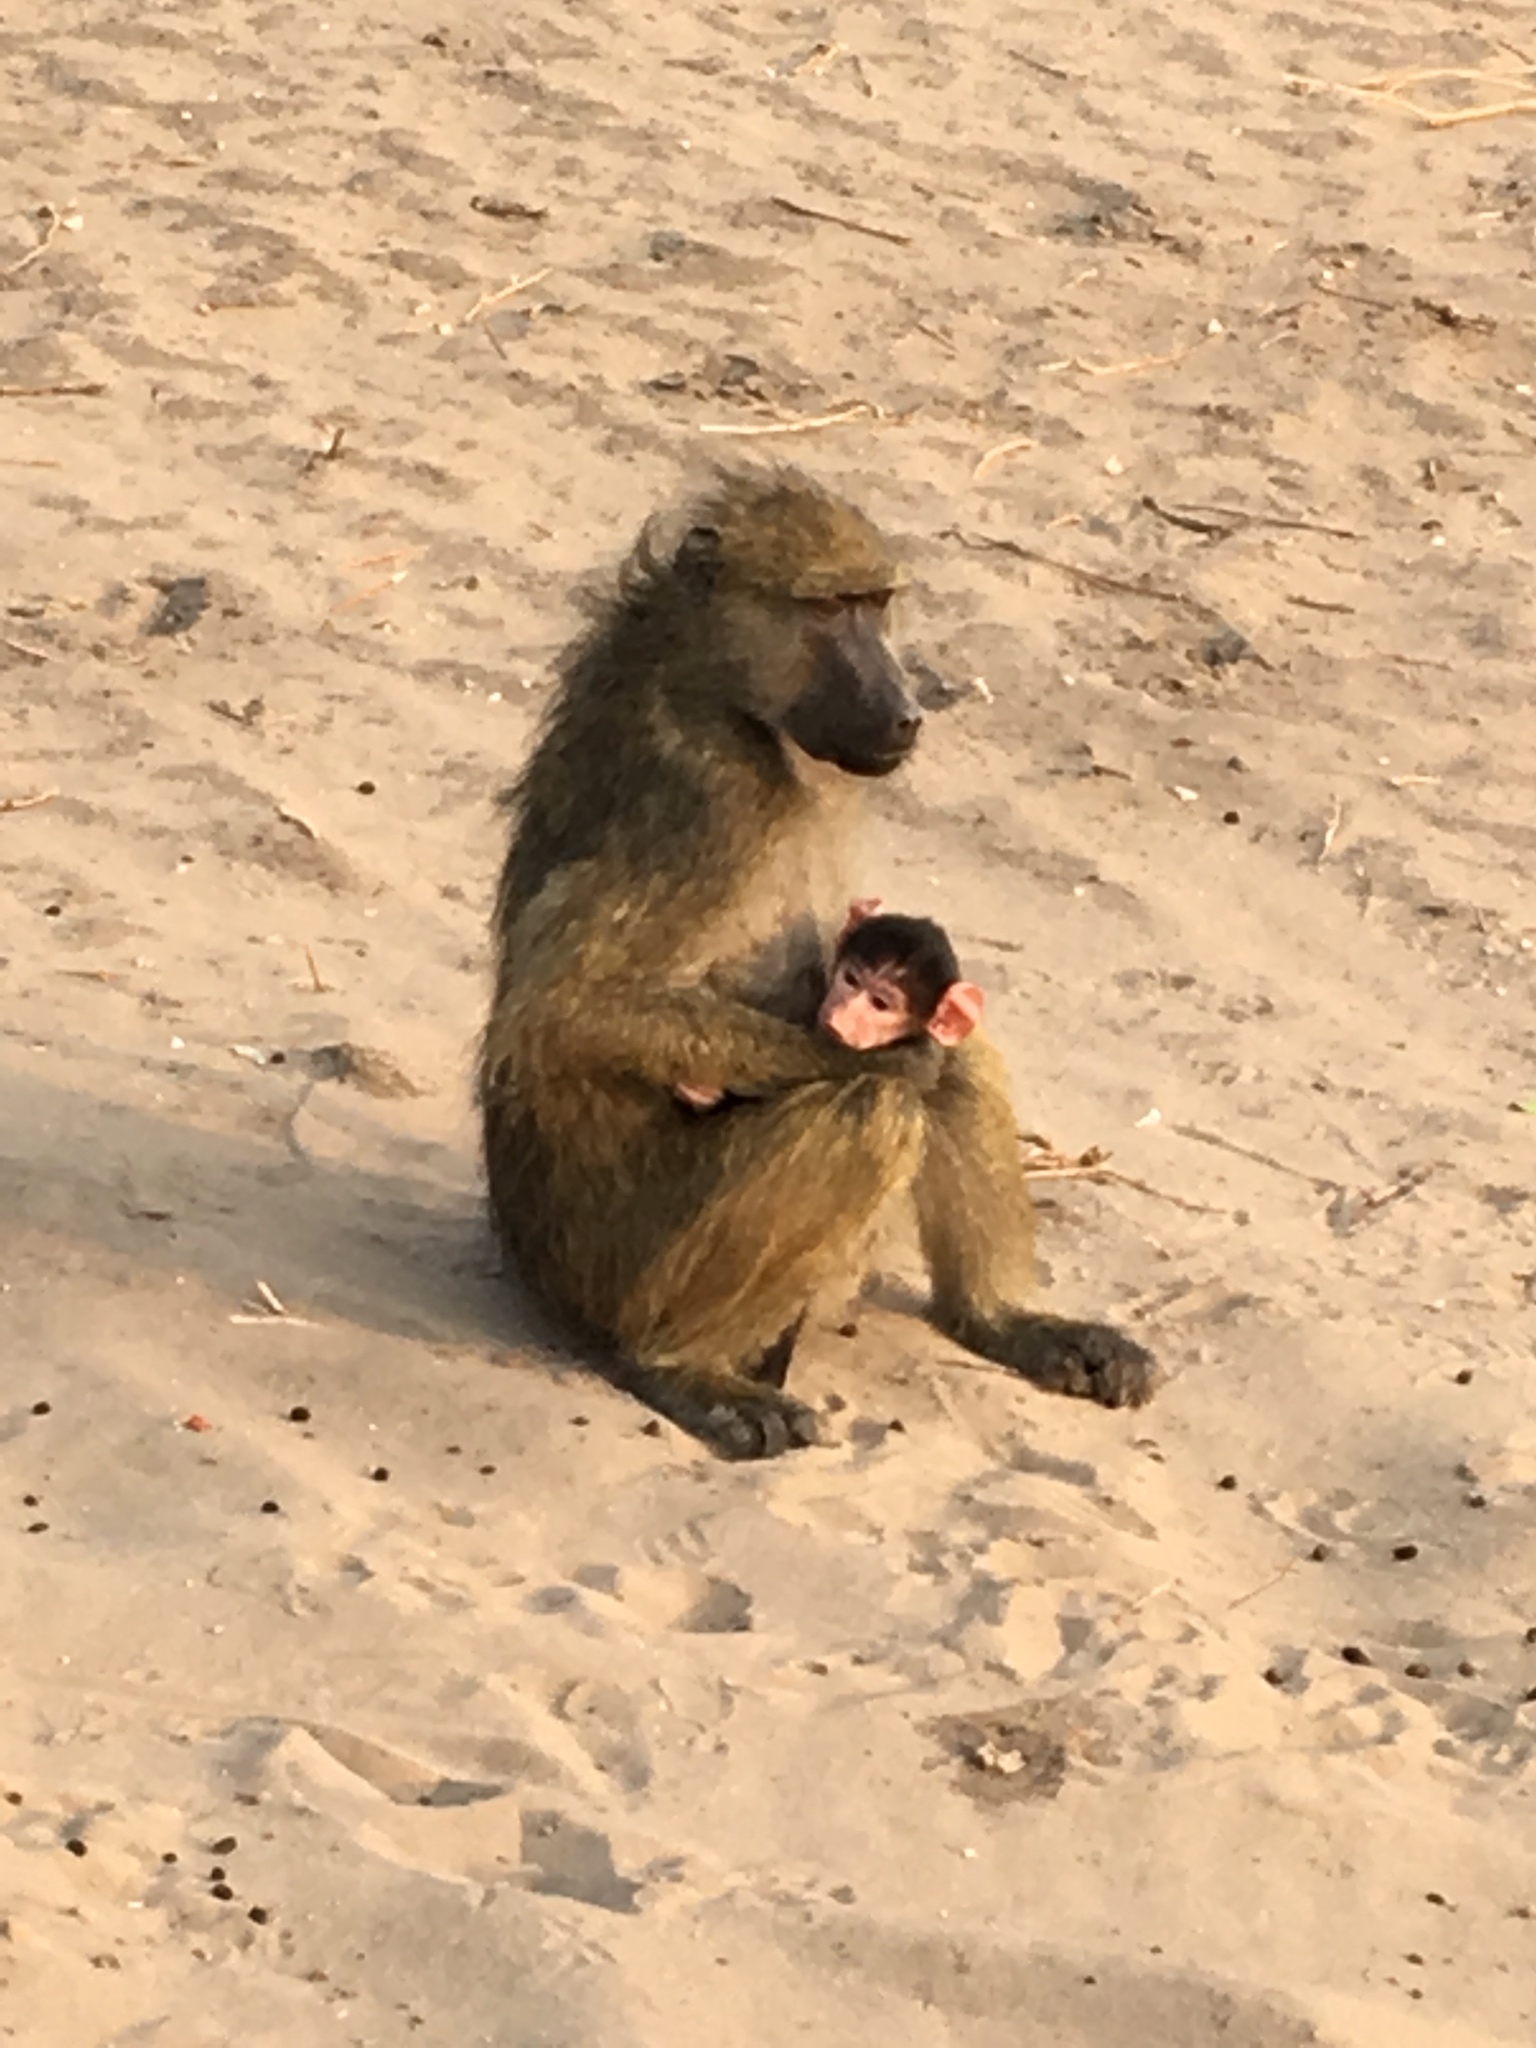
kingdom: Animalia
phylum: Chordata
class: Mammalia
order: Primates
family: Cercopithecidae
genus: Papio
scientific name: Papio ursinus
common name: Chacma baboon
